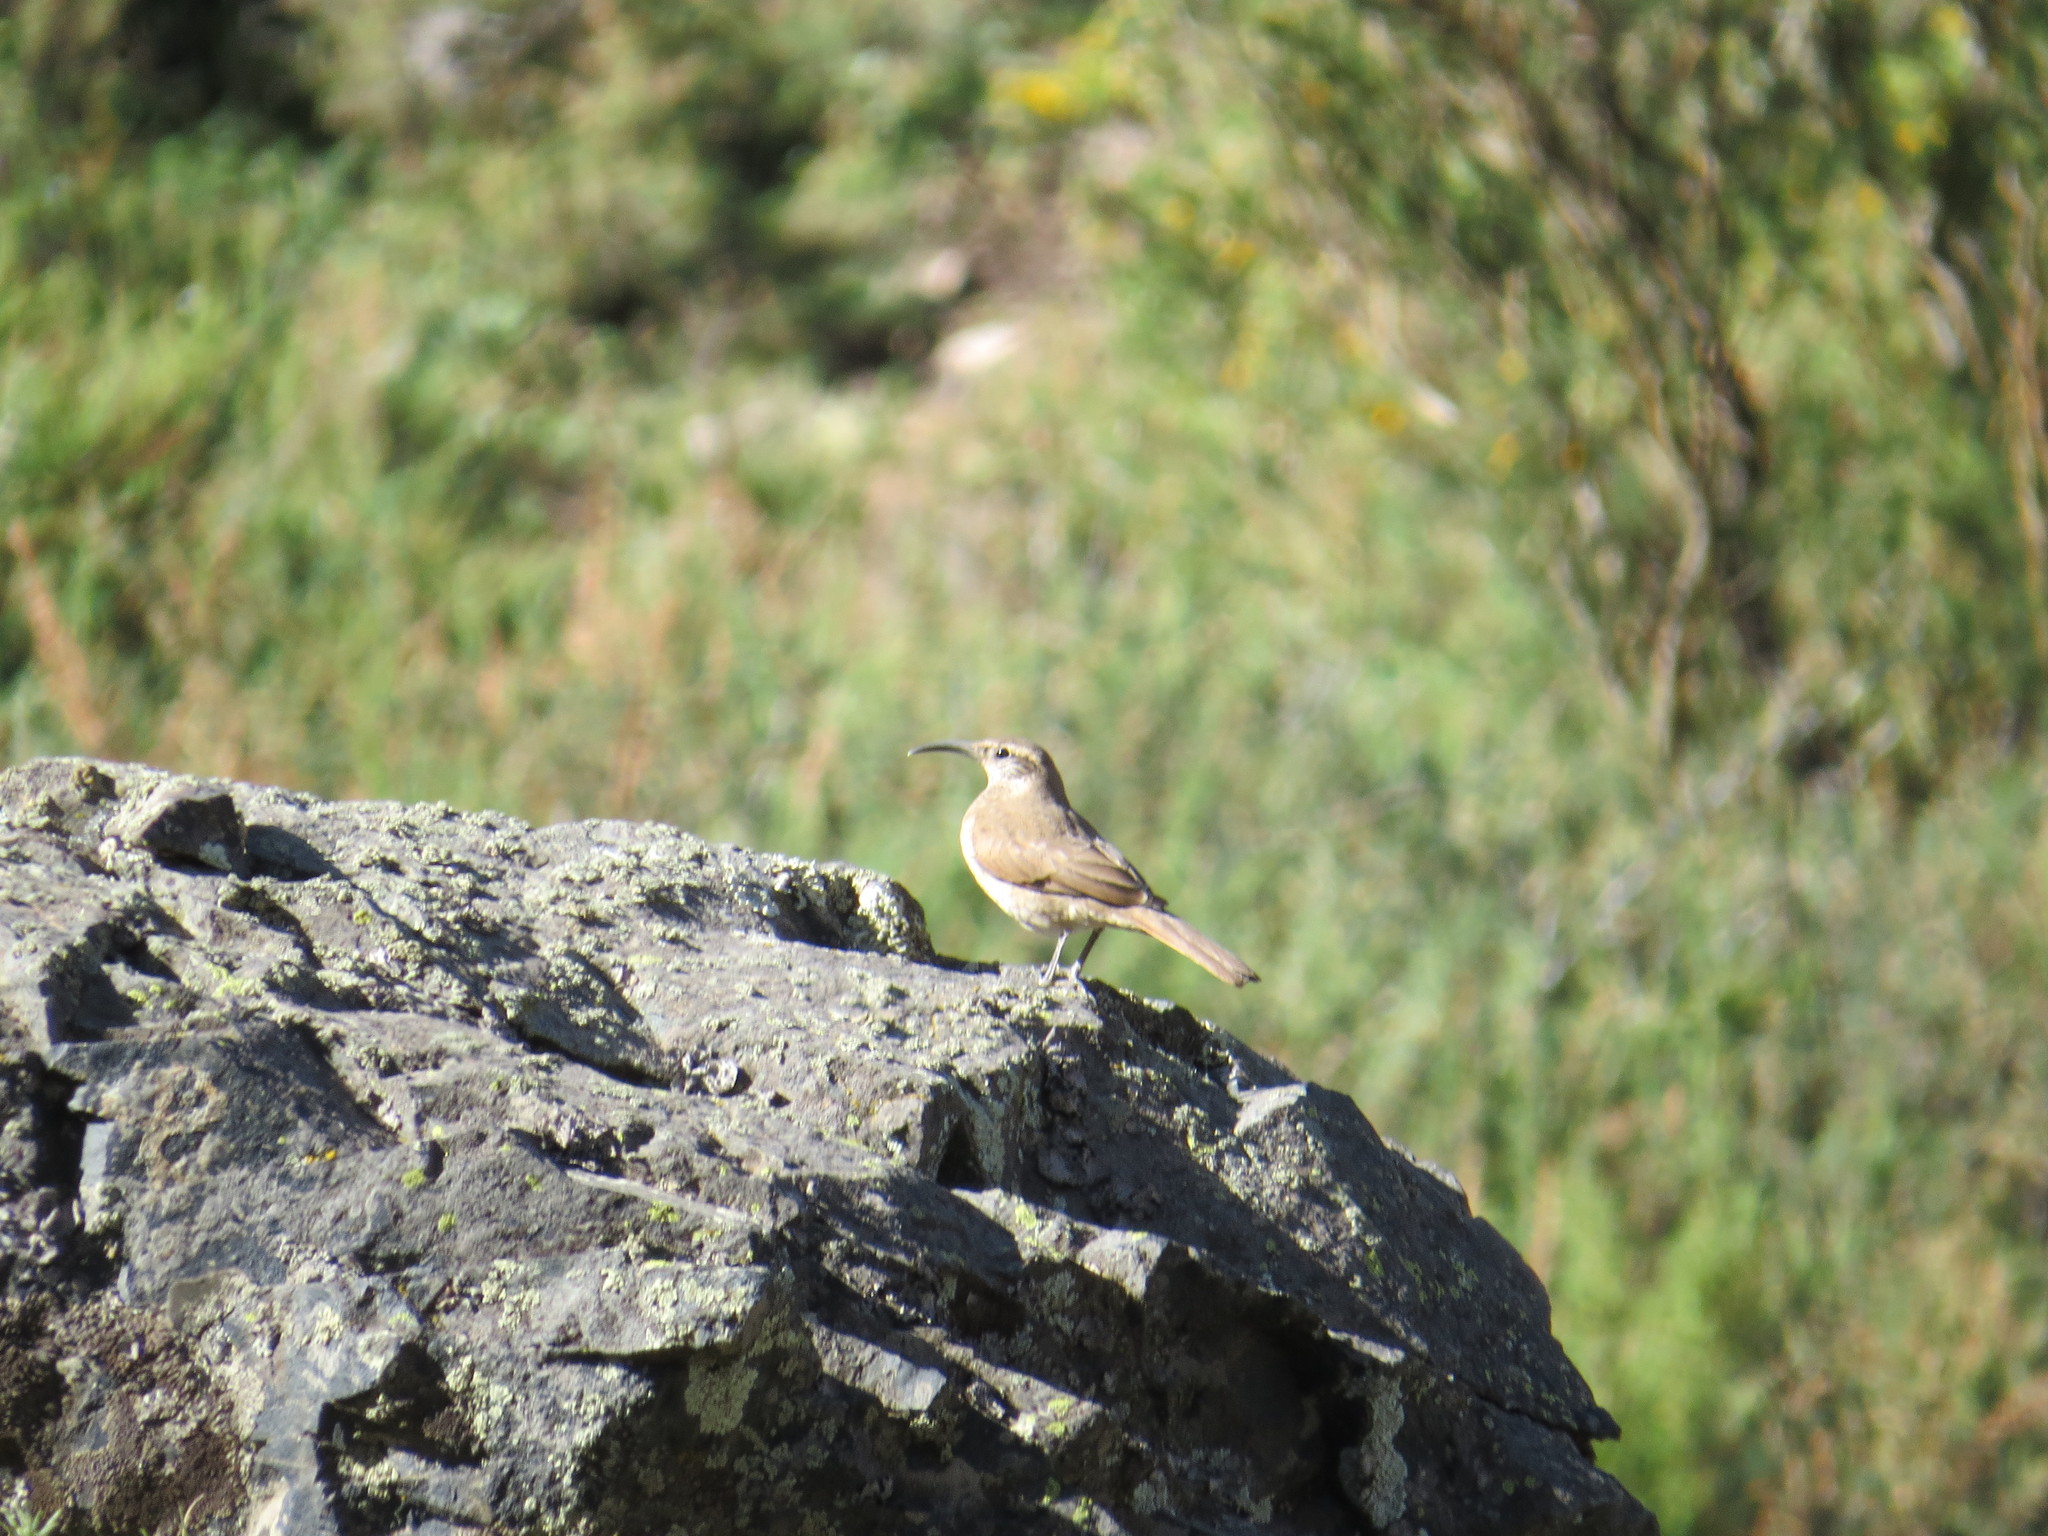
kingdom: Animalia
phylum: Chordata
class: Aves
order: Passeriformes
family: Furnariidae
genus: Upucerthia
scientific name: Upucerthia validirostris
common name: Buff-breasted earthcreeper
